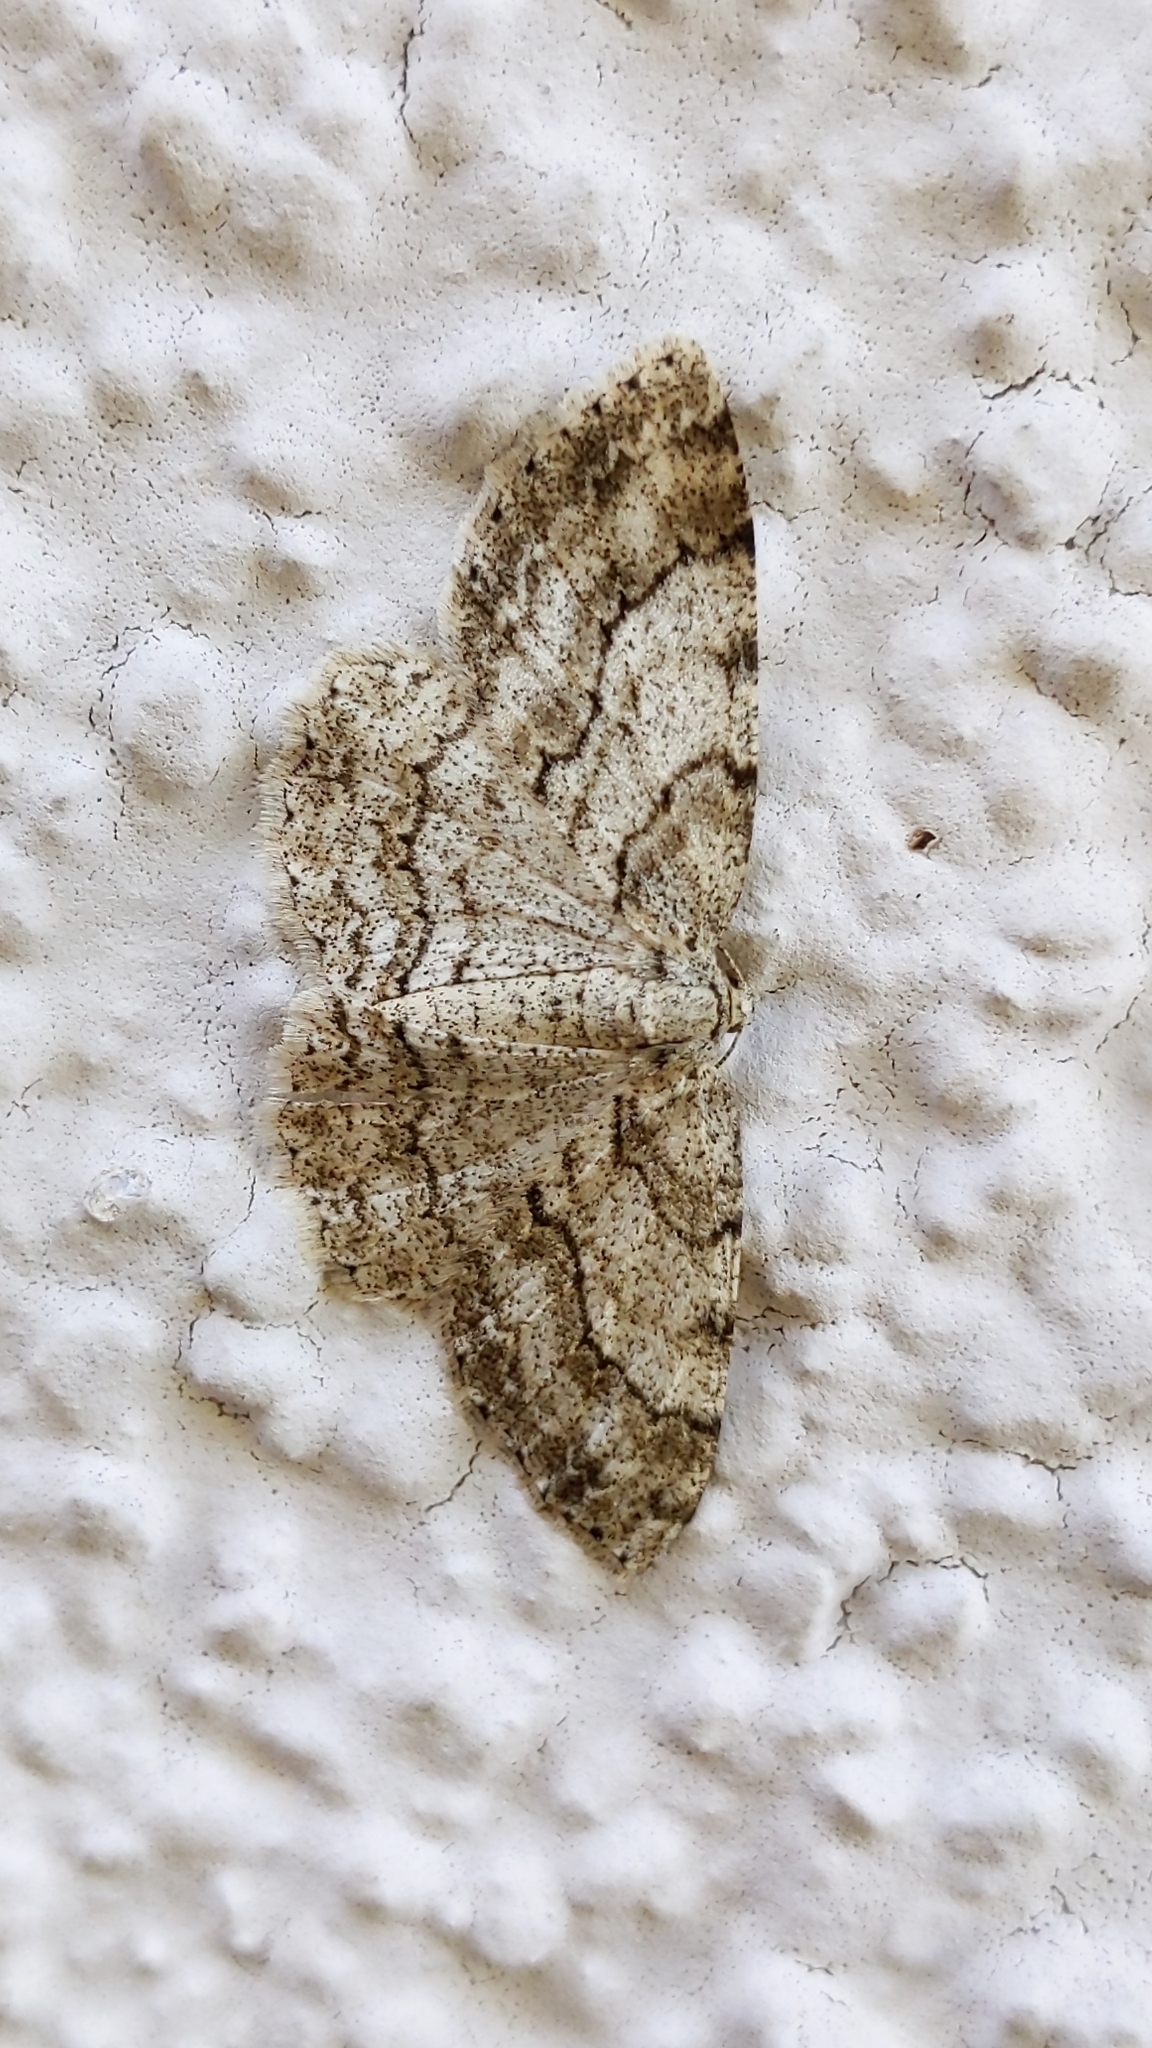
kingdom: Animalia
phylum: Arthropoda
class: Insecta
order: Lepidoptera
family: Geometridae
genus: Ectropis
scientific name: Ectropis crepuscularia
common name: Engrailed
